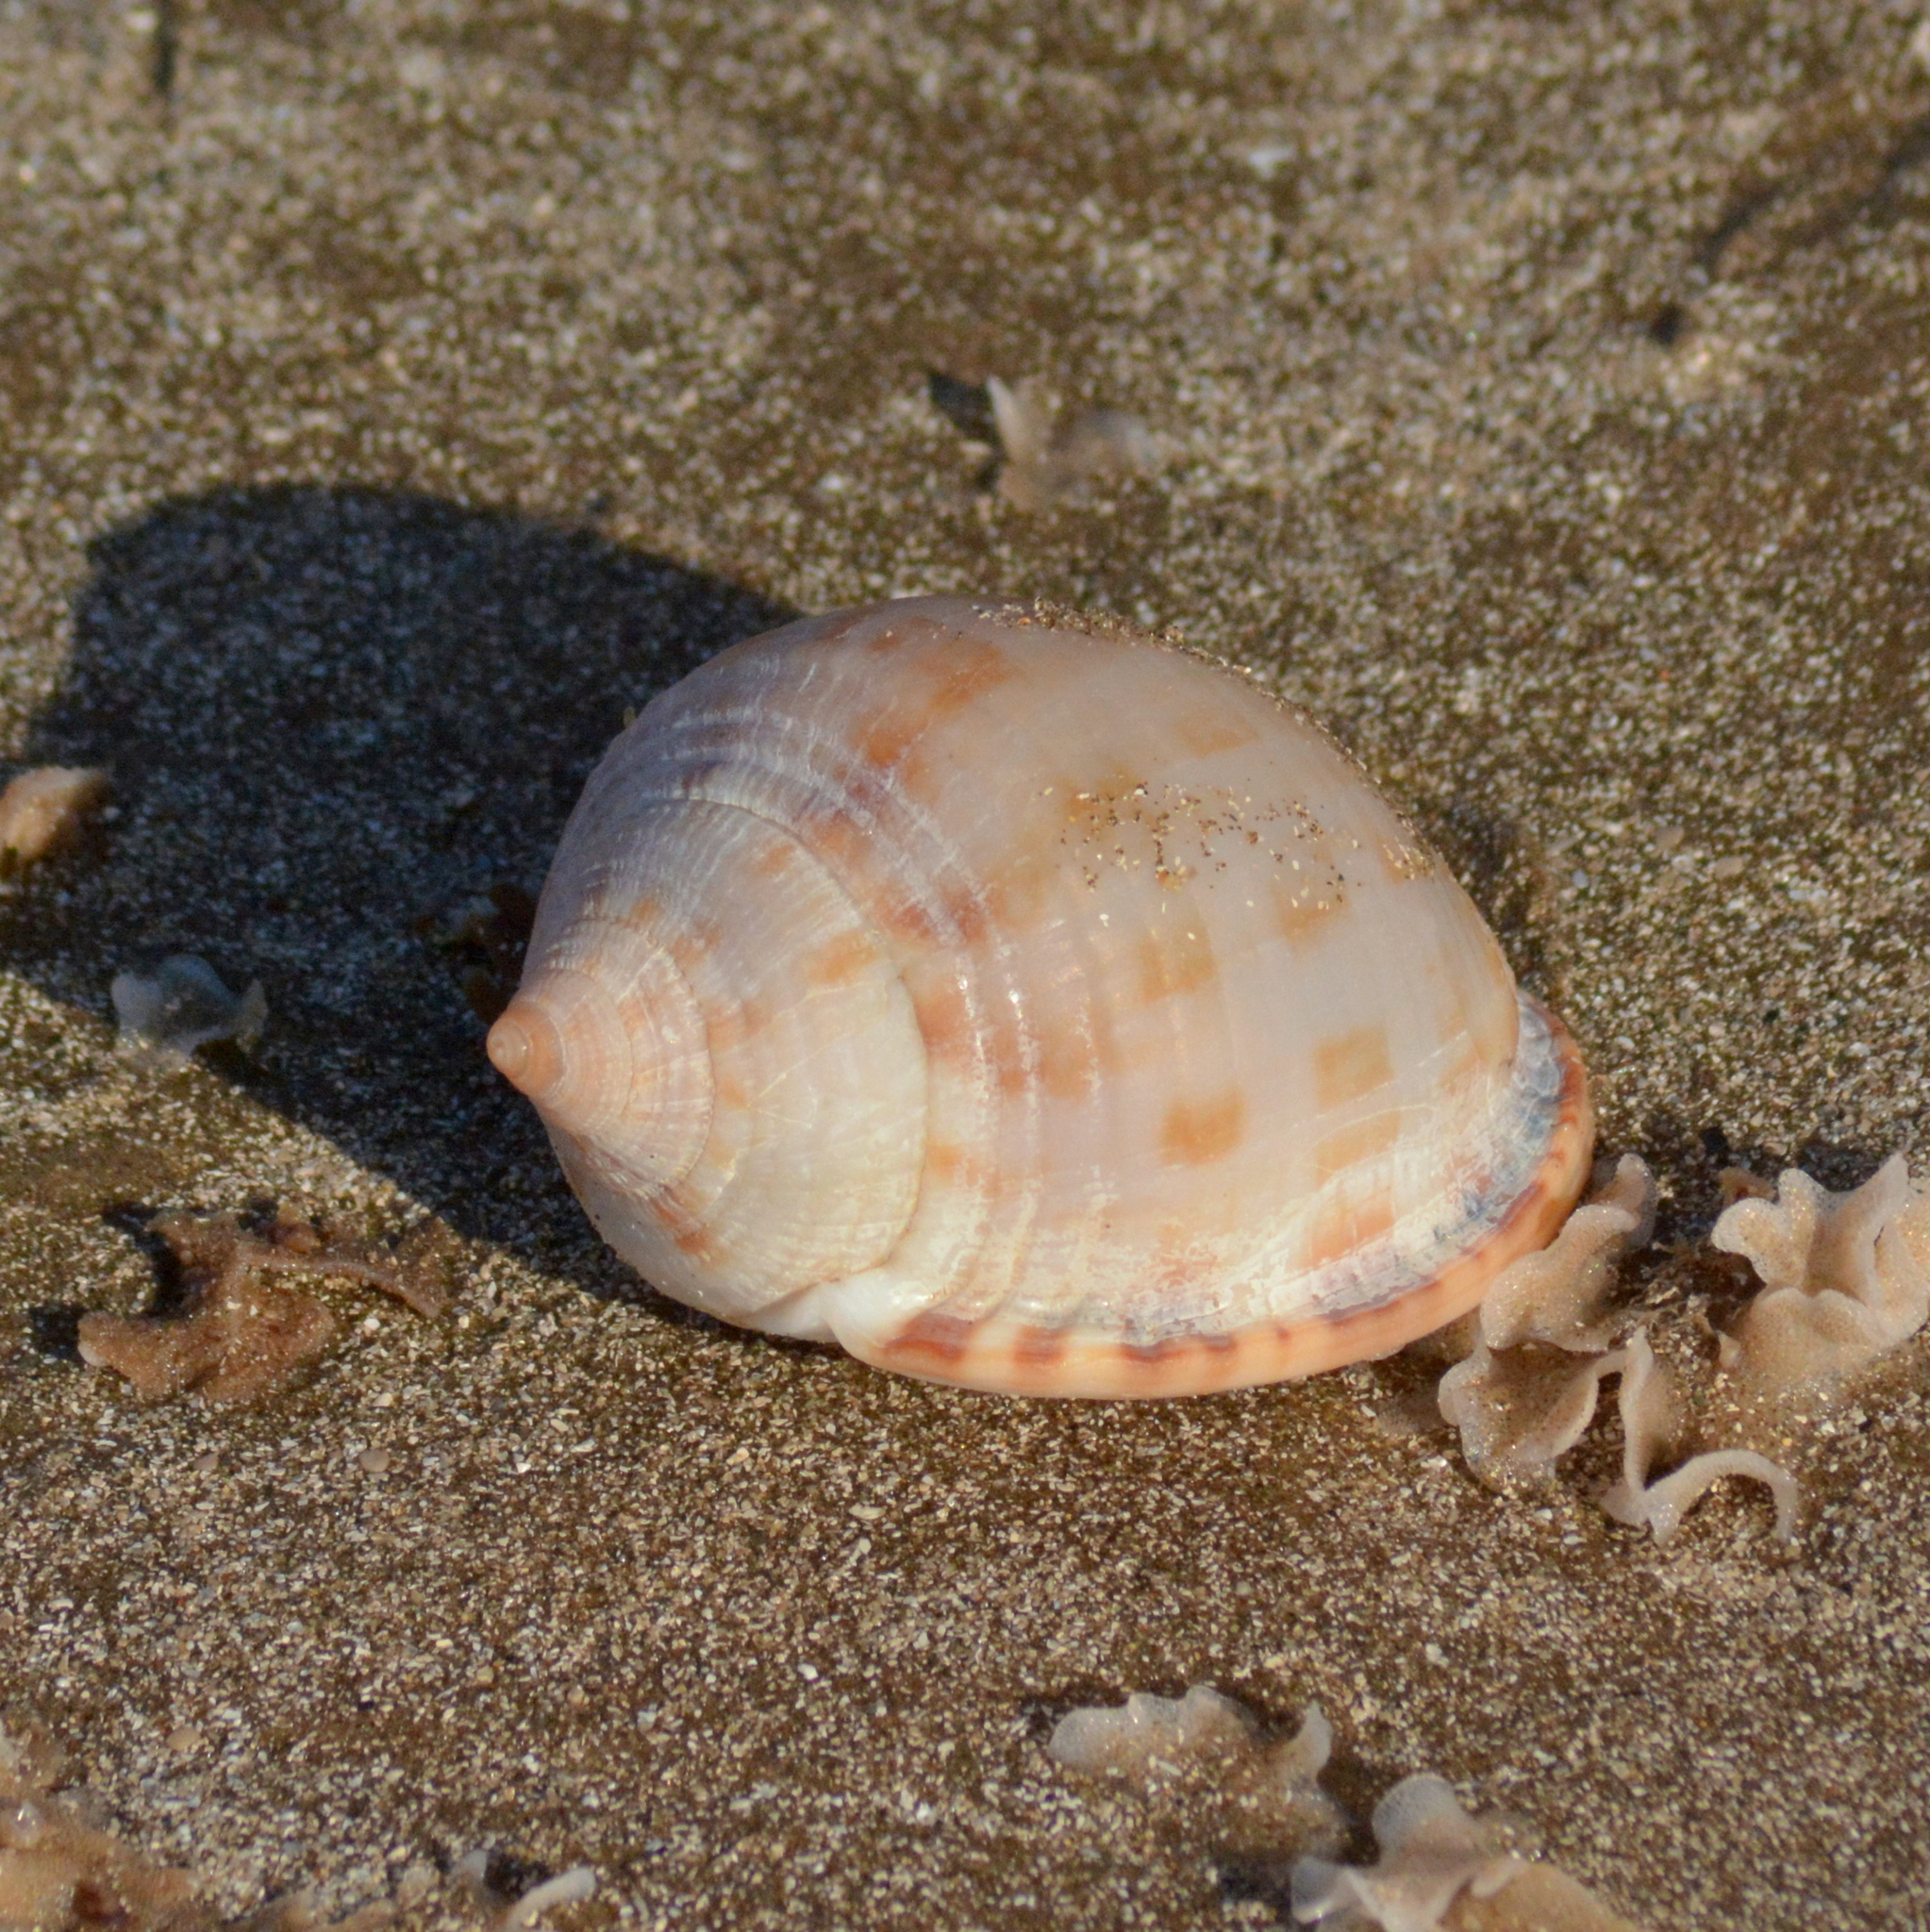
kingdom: Animalia
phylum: Mollusca
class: Gastropoda
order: Littorinimorpha
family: Cassidae
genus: Semicassis
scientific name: Semicassis granulata
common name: Scotch bonnet
